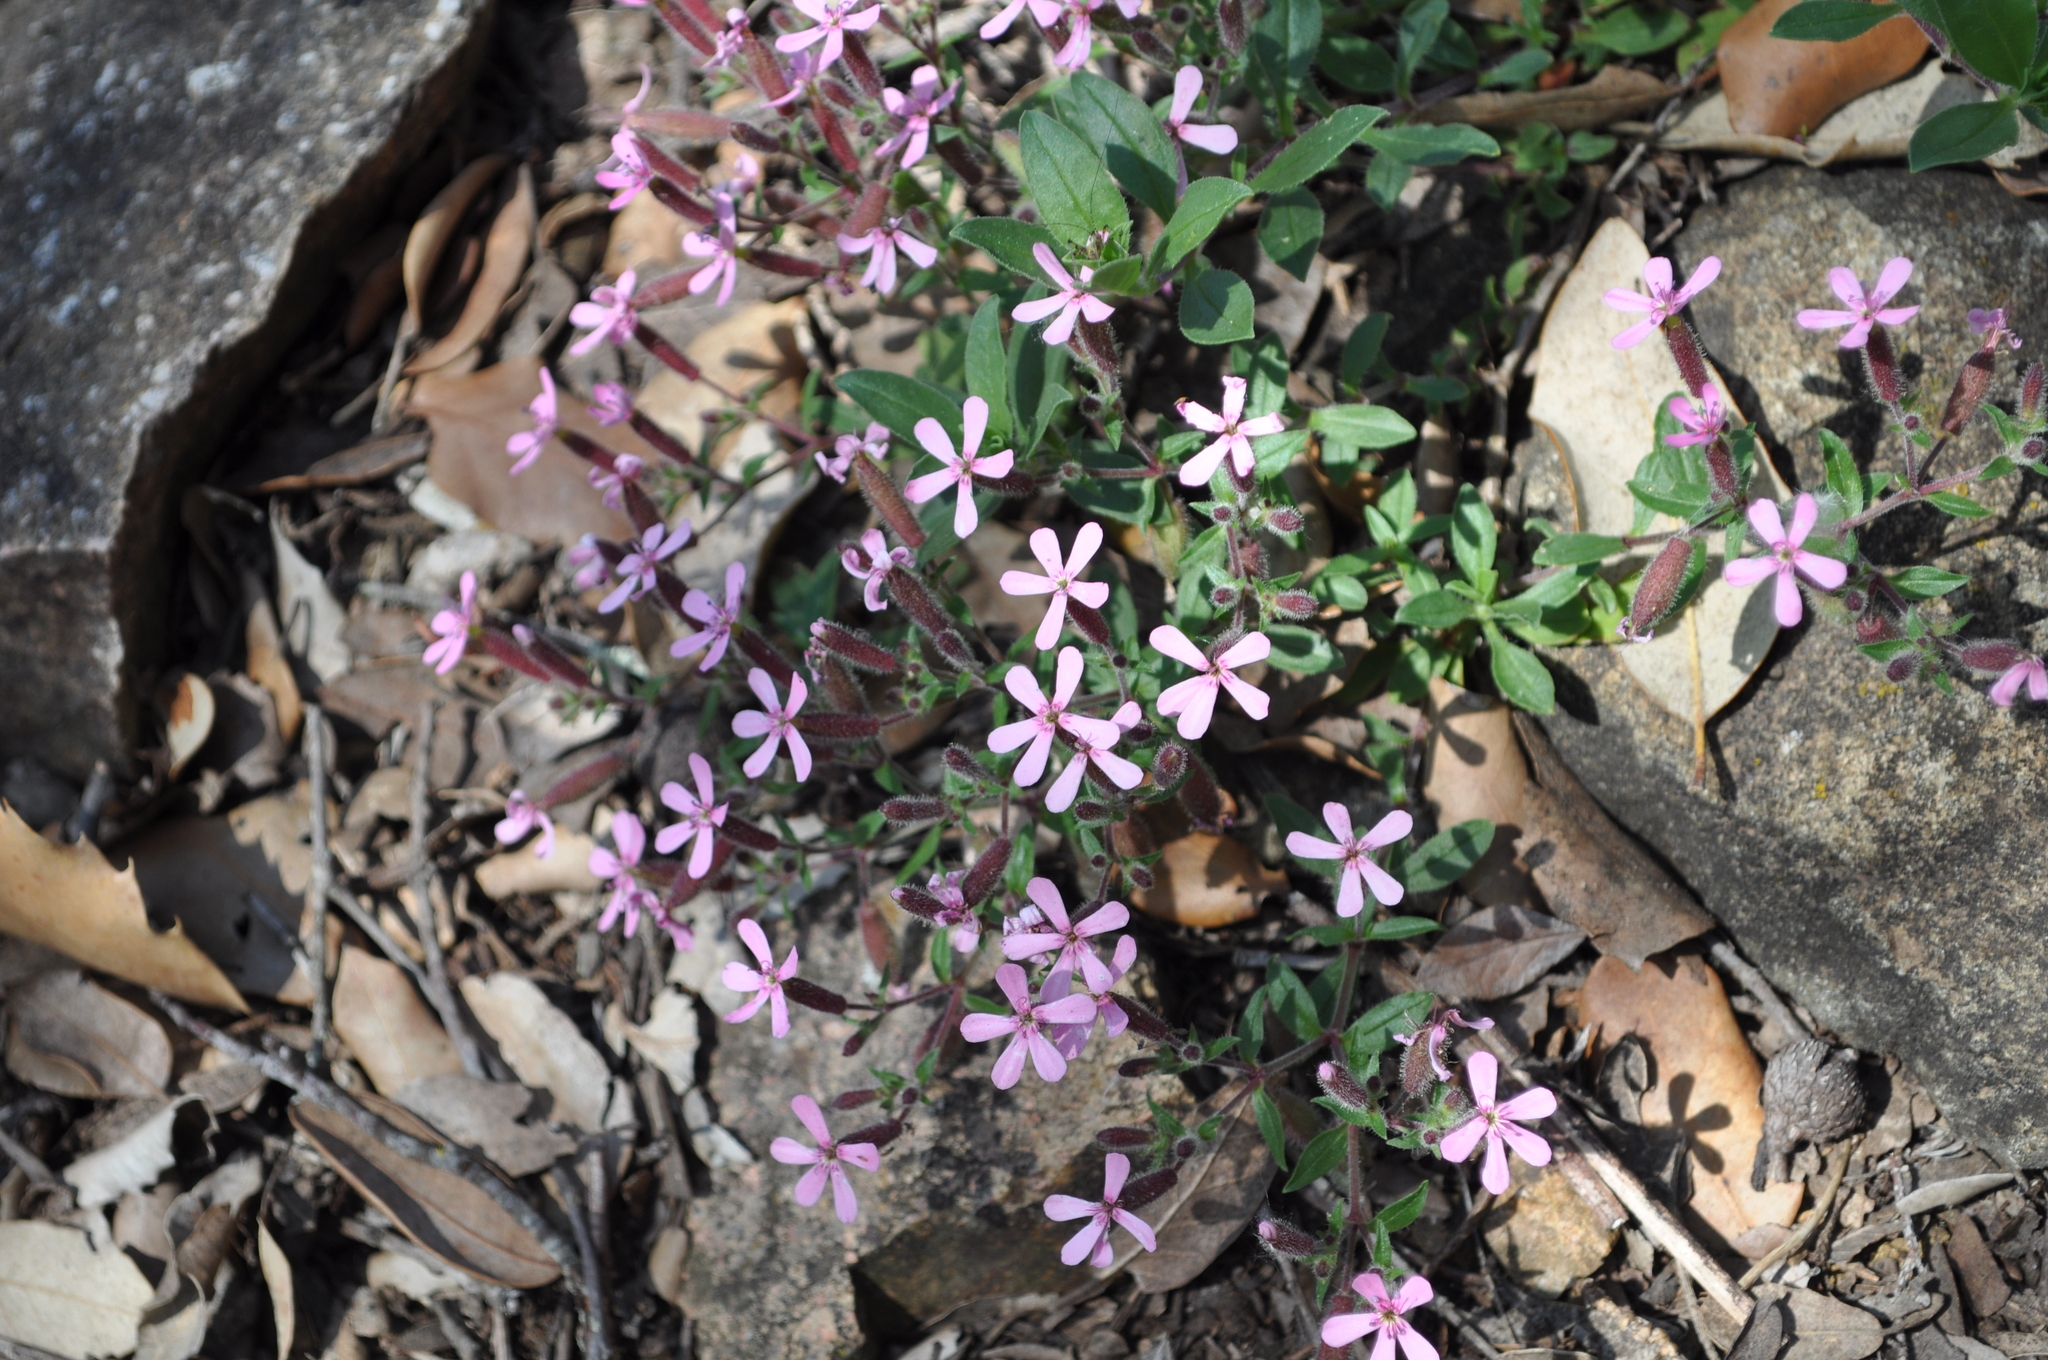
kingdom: Plantae
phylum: Tracheophyta
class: Magnoliopsida
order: Caryophyllales
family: Caryophyllaceae
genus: Saponaria
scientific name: Saponaria ocymoides
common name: Rock soapwort
